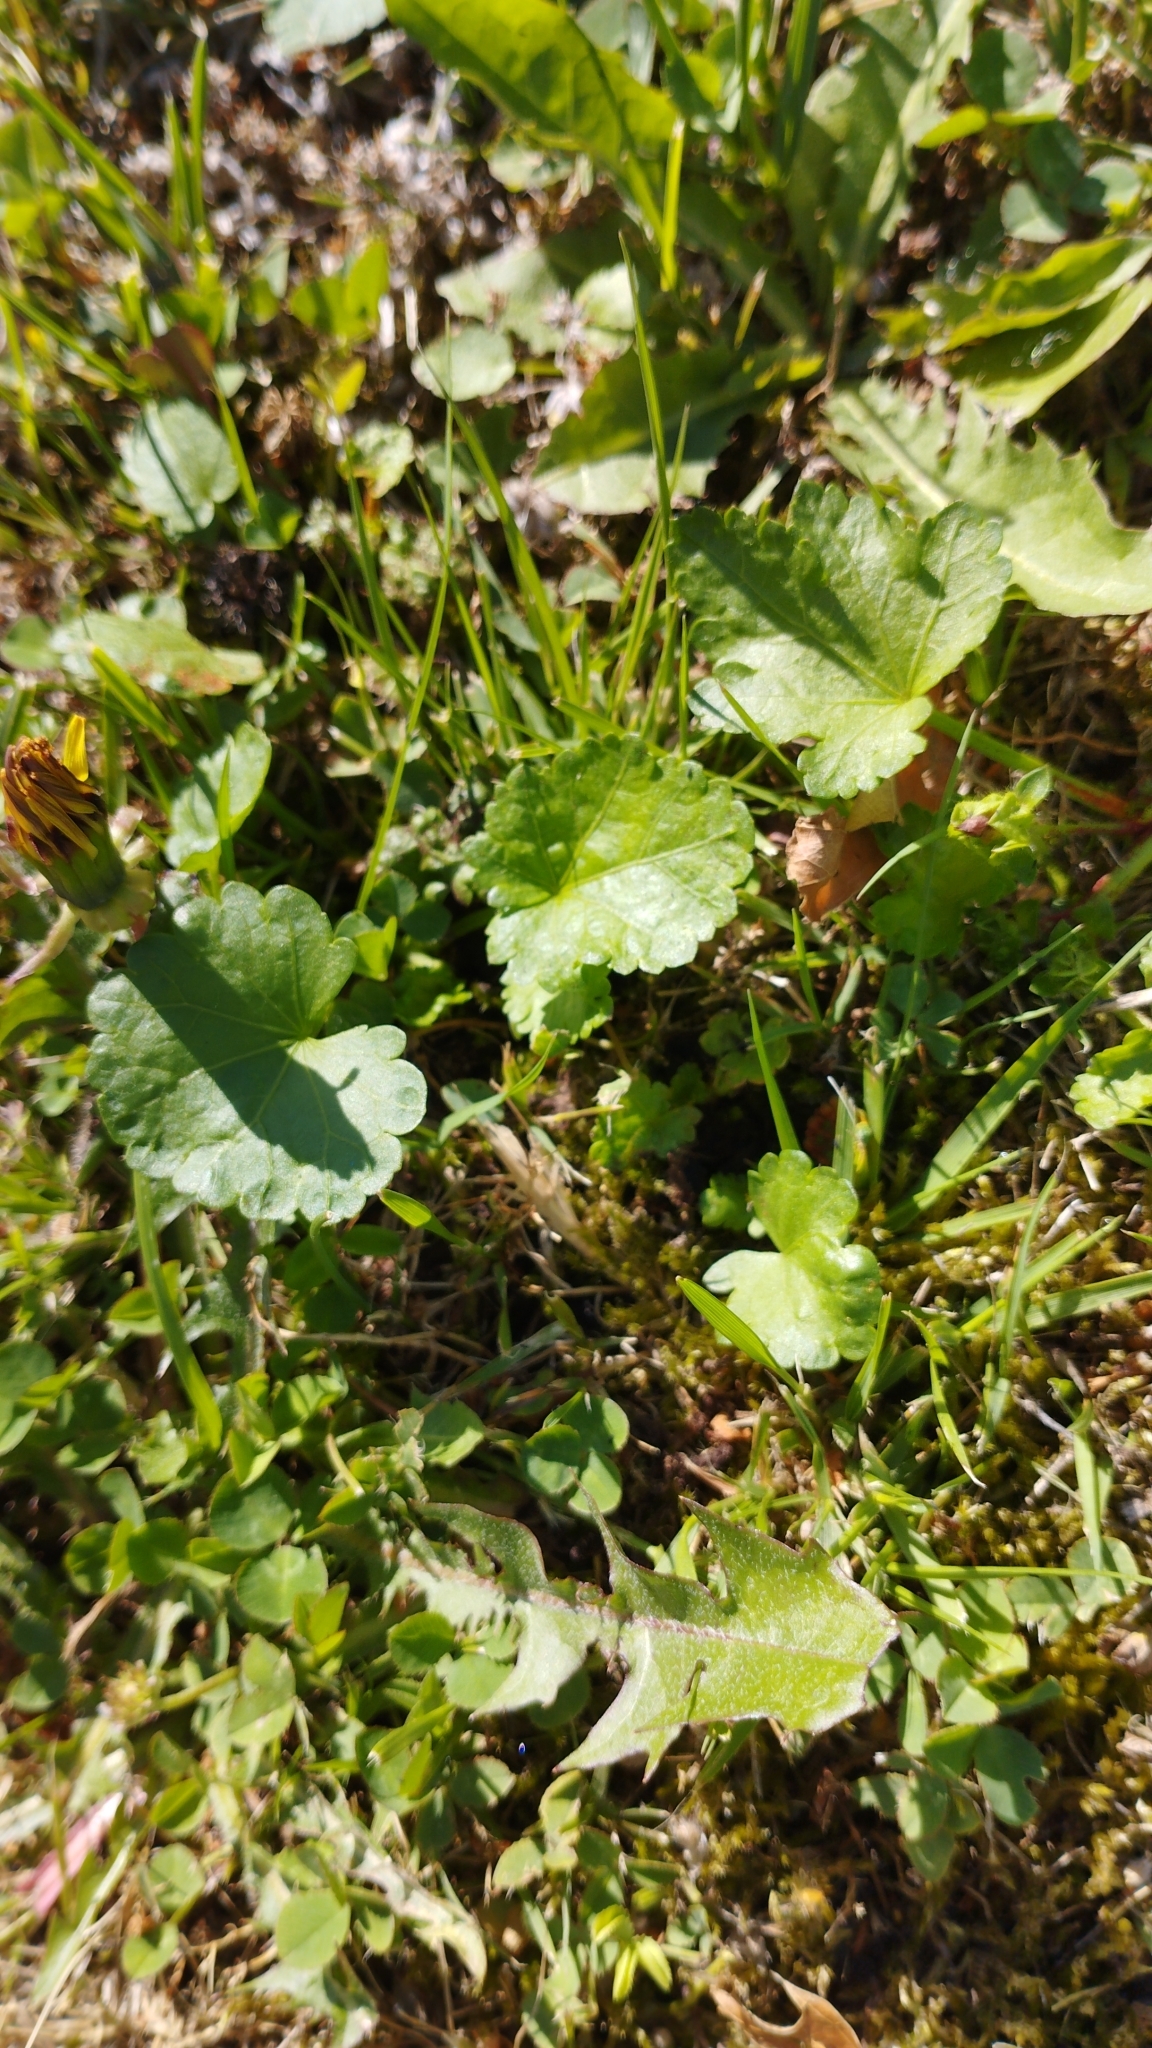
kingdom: Plantae
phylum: Tracheophyta
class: Magnoliopsida
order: Malvales
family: Malvaceae
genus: Modiola
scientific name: Modiola caroliniana
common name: Carolina bristlemallow
